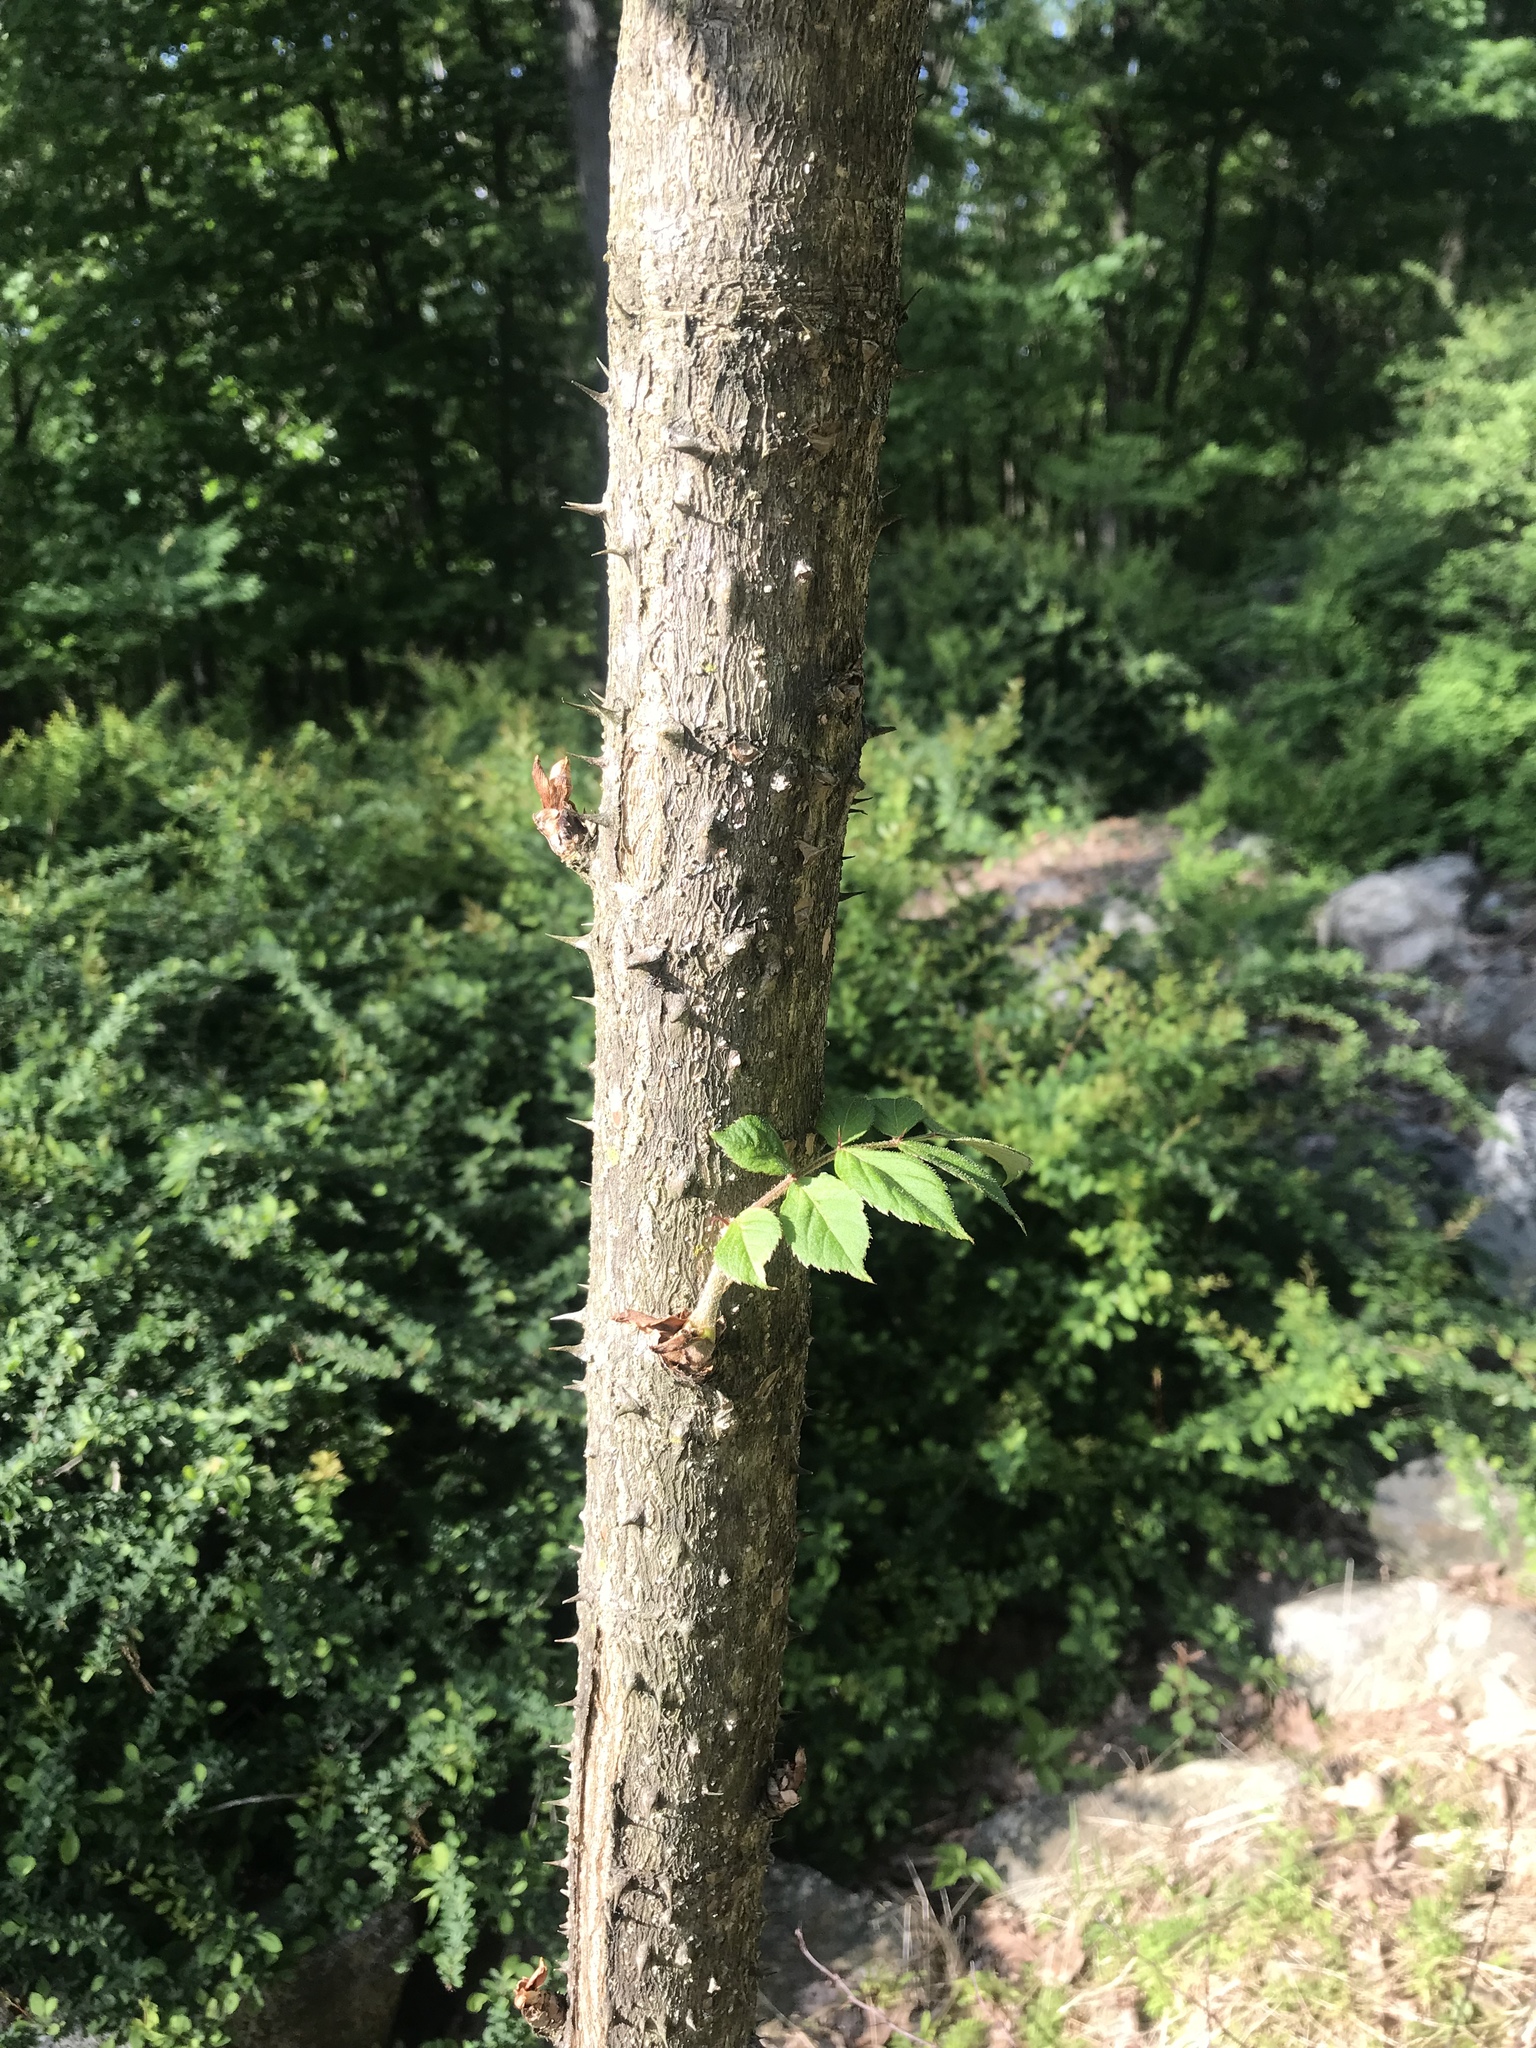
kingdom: Plantae
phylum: Tracheophyta
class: Magnoliopsida
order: Apiales
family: Araliaceae
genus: Aralia
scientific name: Aralia elata
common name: Japanese angelica-tree
